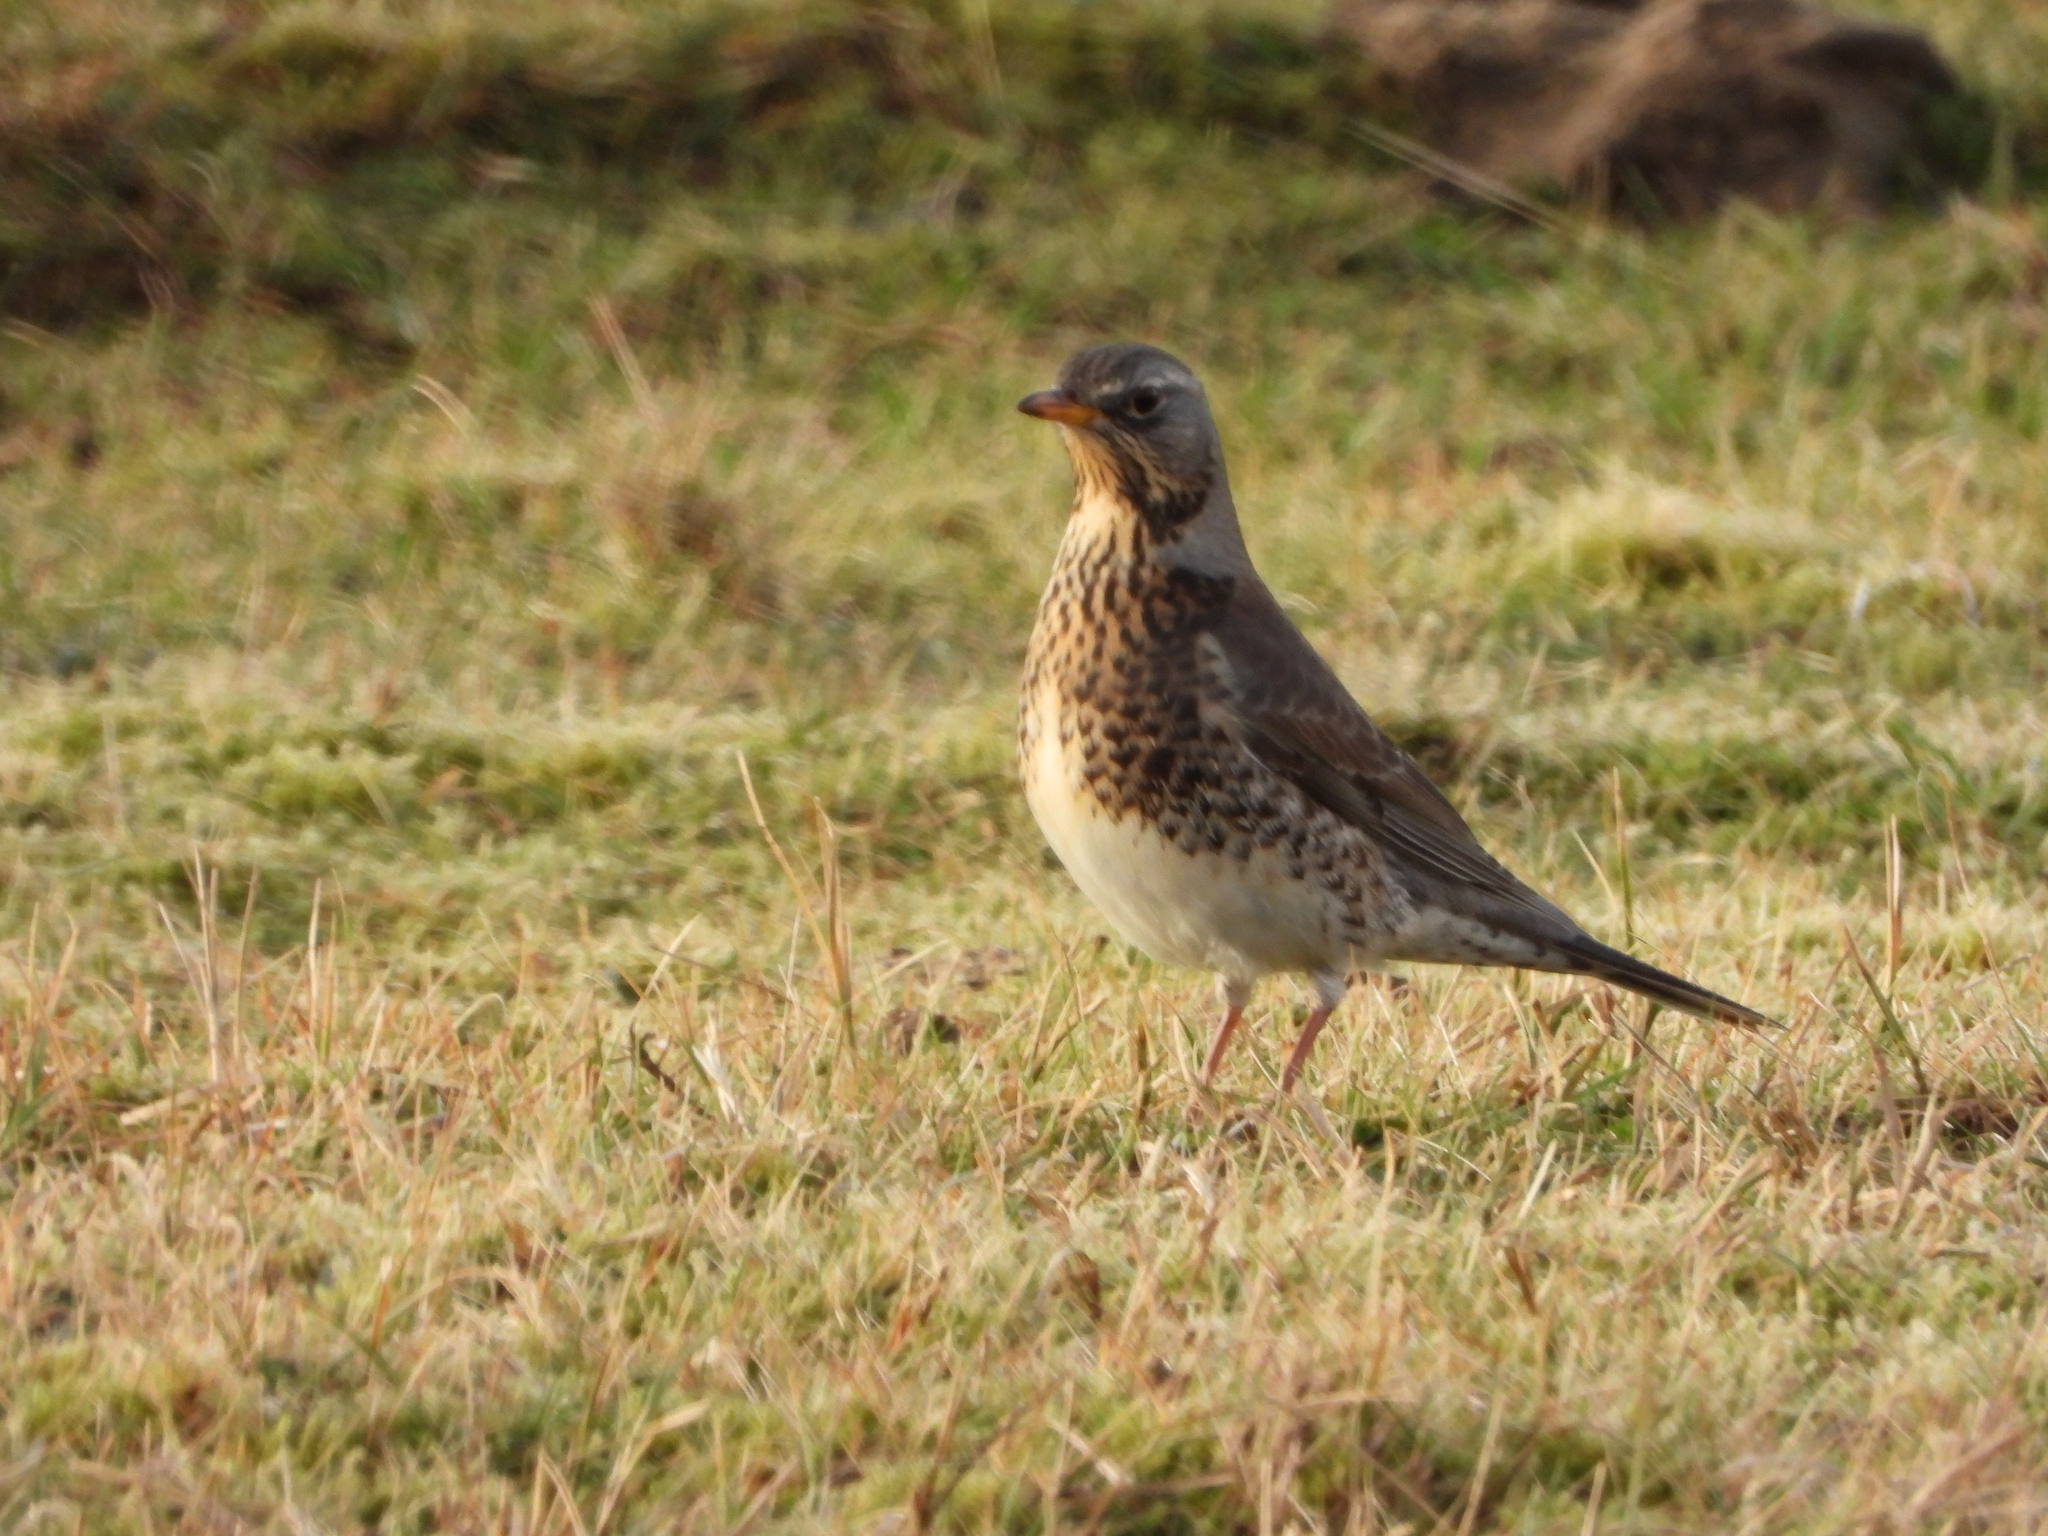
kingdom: Animalia
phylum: Chordata
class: Aves
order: Passeriformes
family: Turdidae
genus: Turdus
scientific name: Turdus pilaris
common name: Fieldfare
